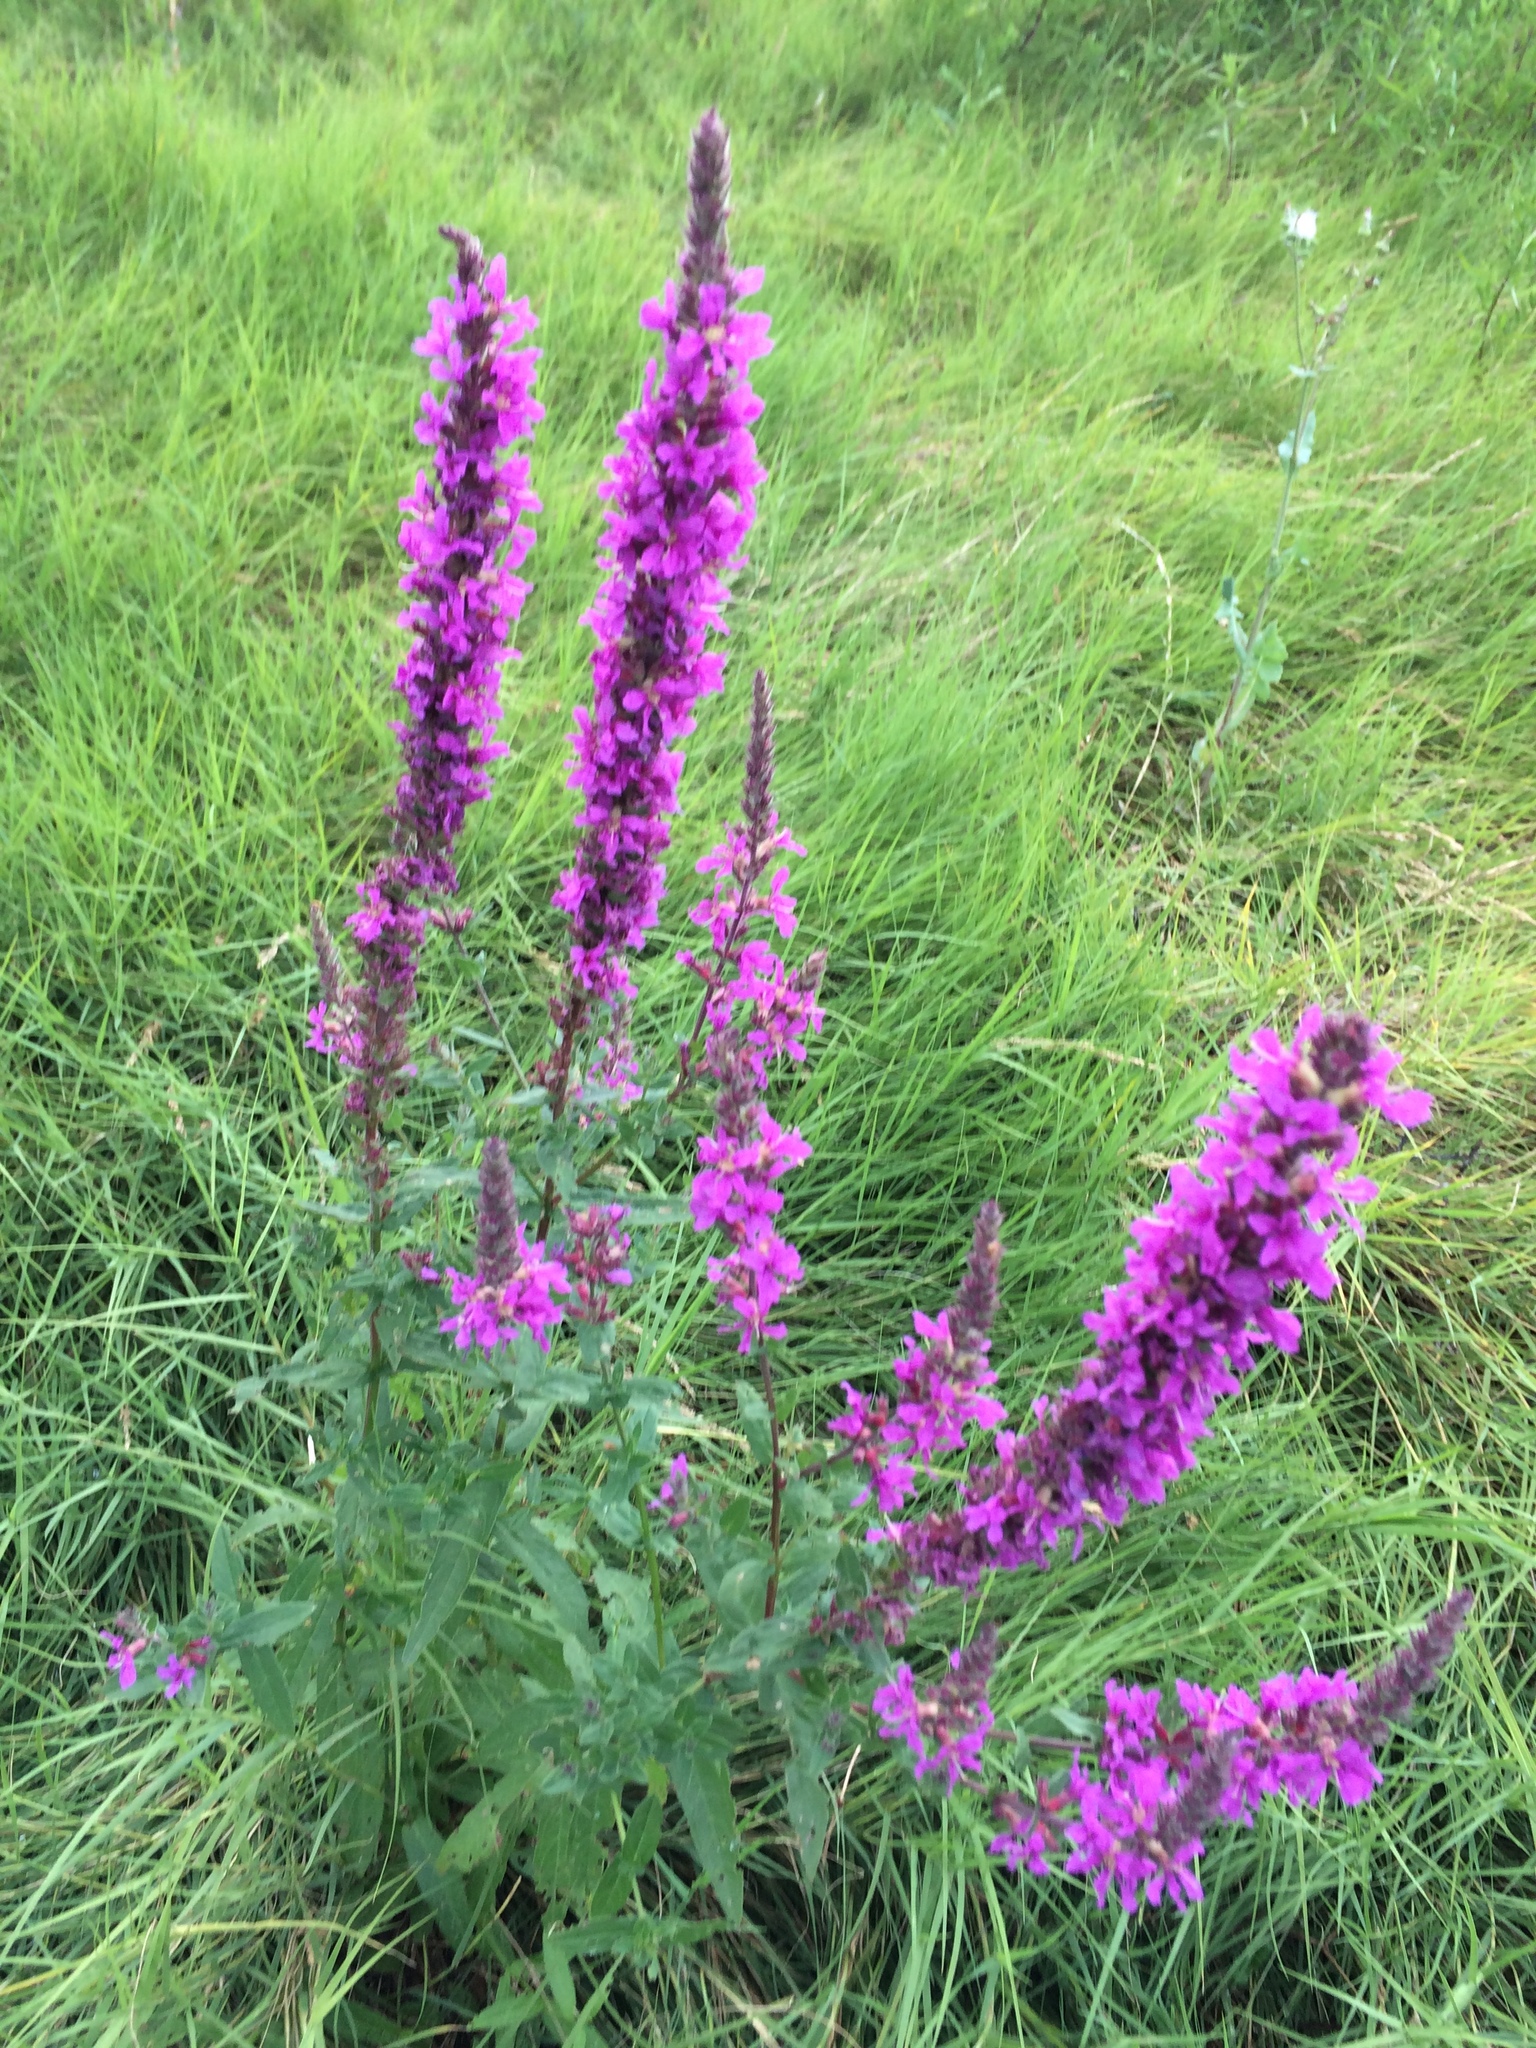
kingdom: Plantae
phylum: Tracheophyta
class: Magnoliopsida
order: Myrtales
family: Lythraceae
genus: Lythrum
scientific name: Lythrum salicaria
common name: Purple loosestrife
